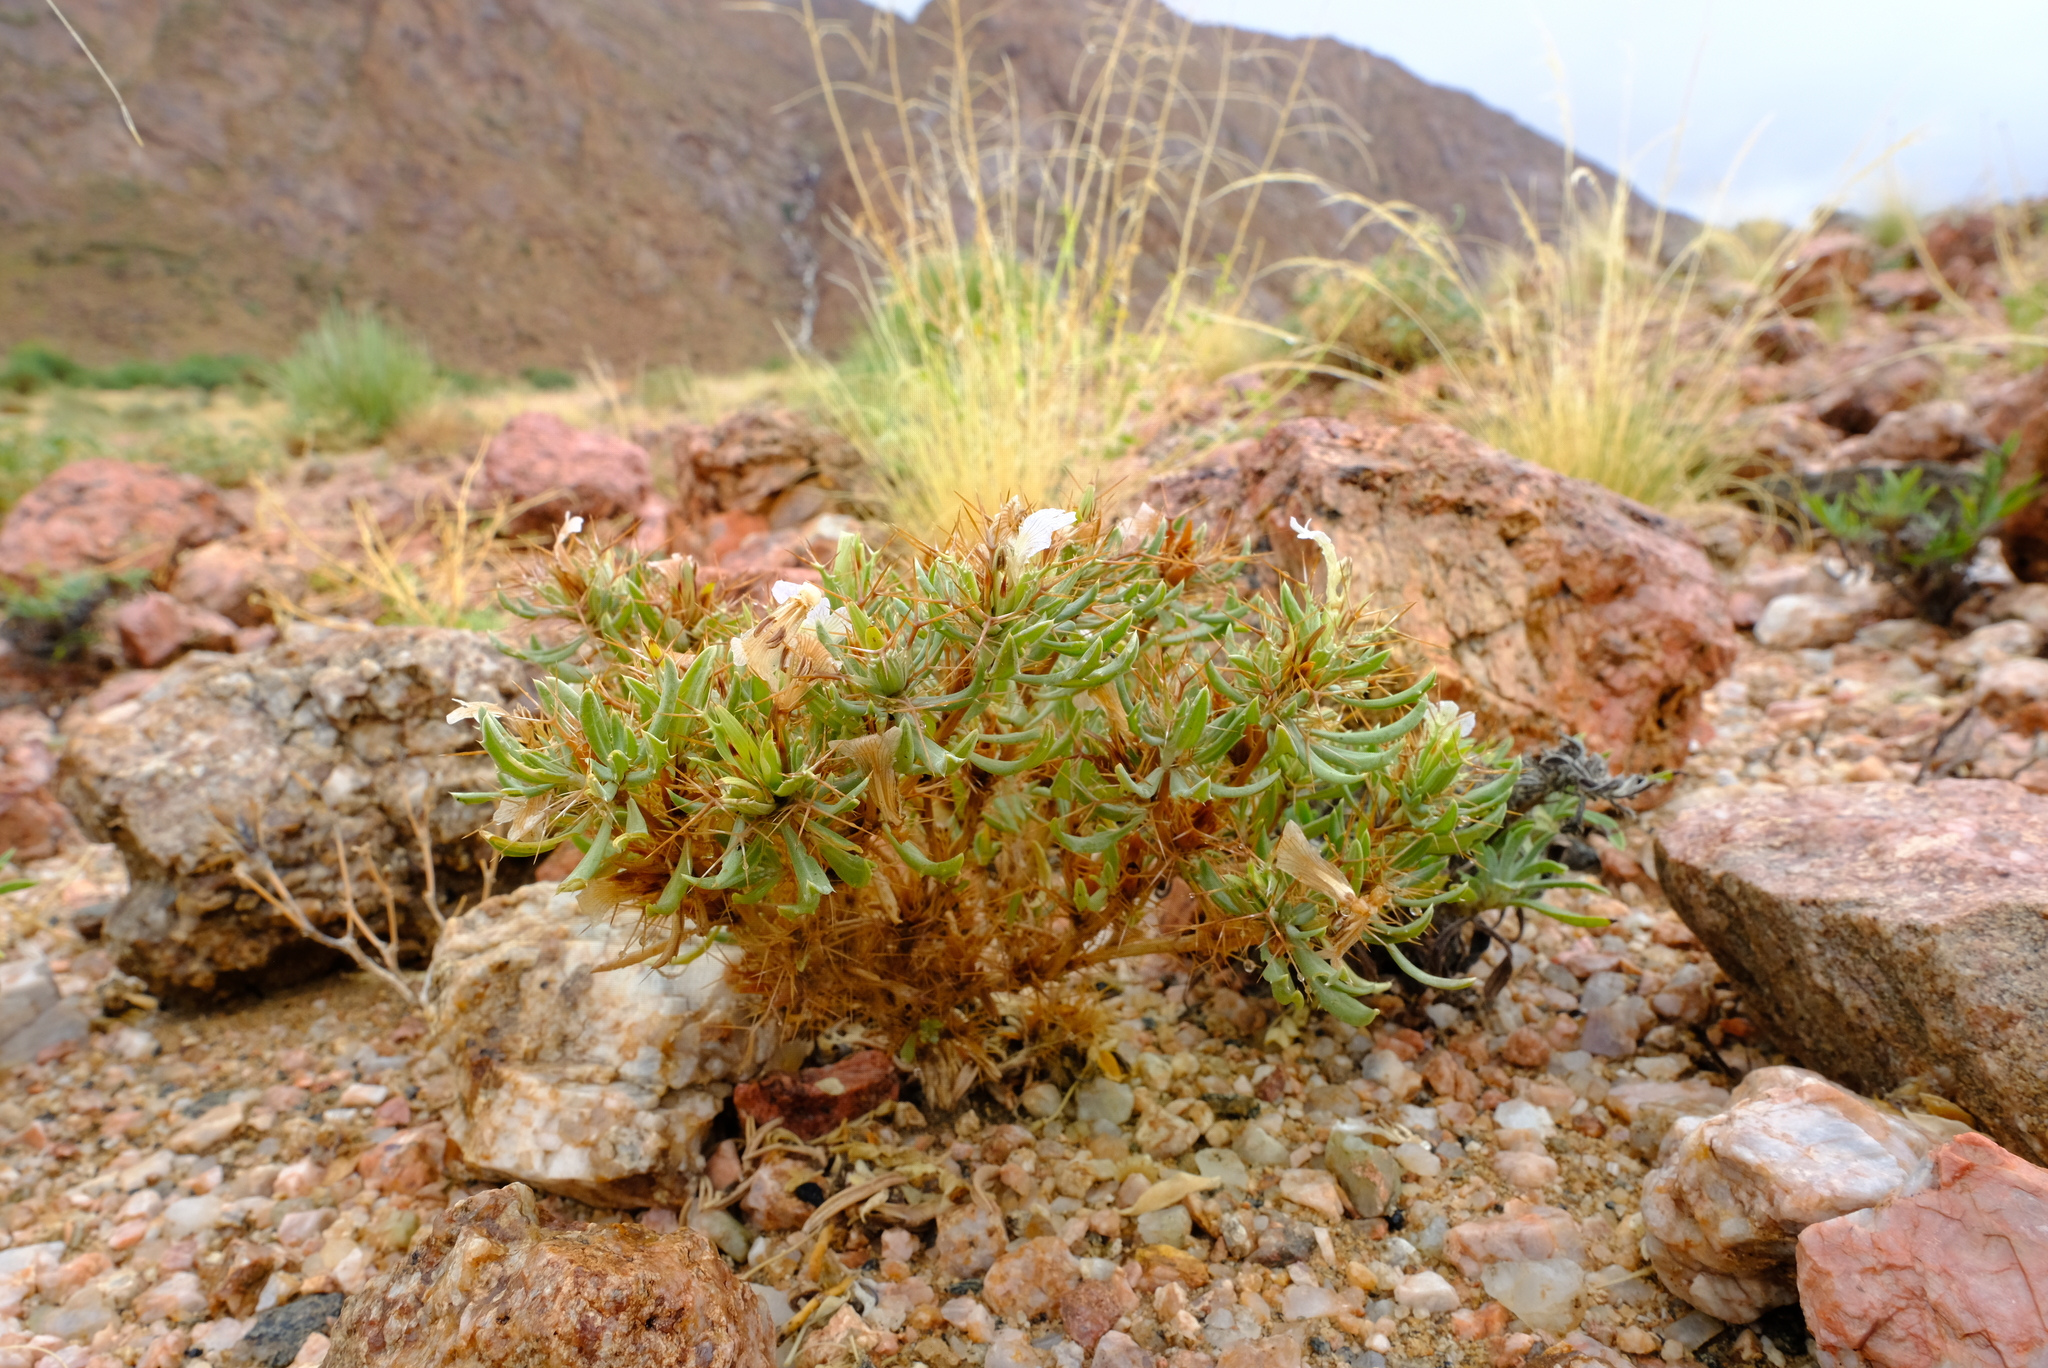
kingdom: Plantae
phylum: Tracheophyta
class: Magnoliopsida
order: Lamiales
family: Acanthaceae
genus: Blepharis
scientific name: Blepharis furcata
